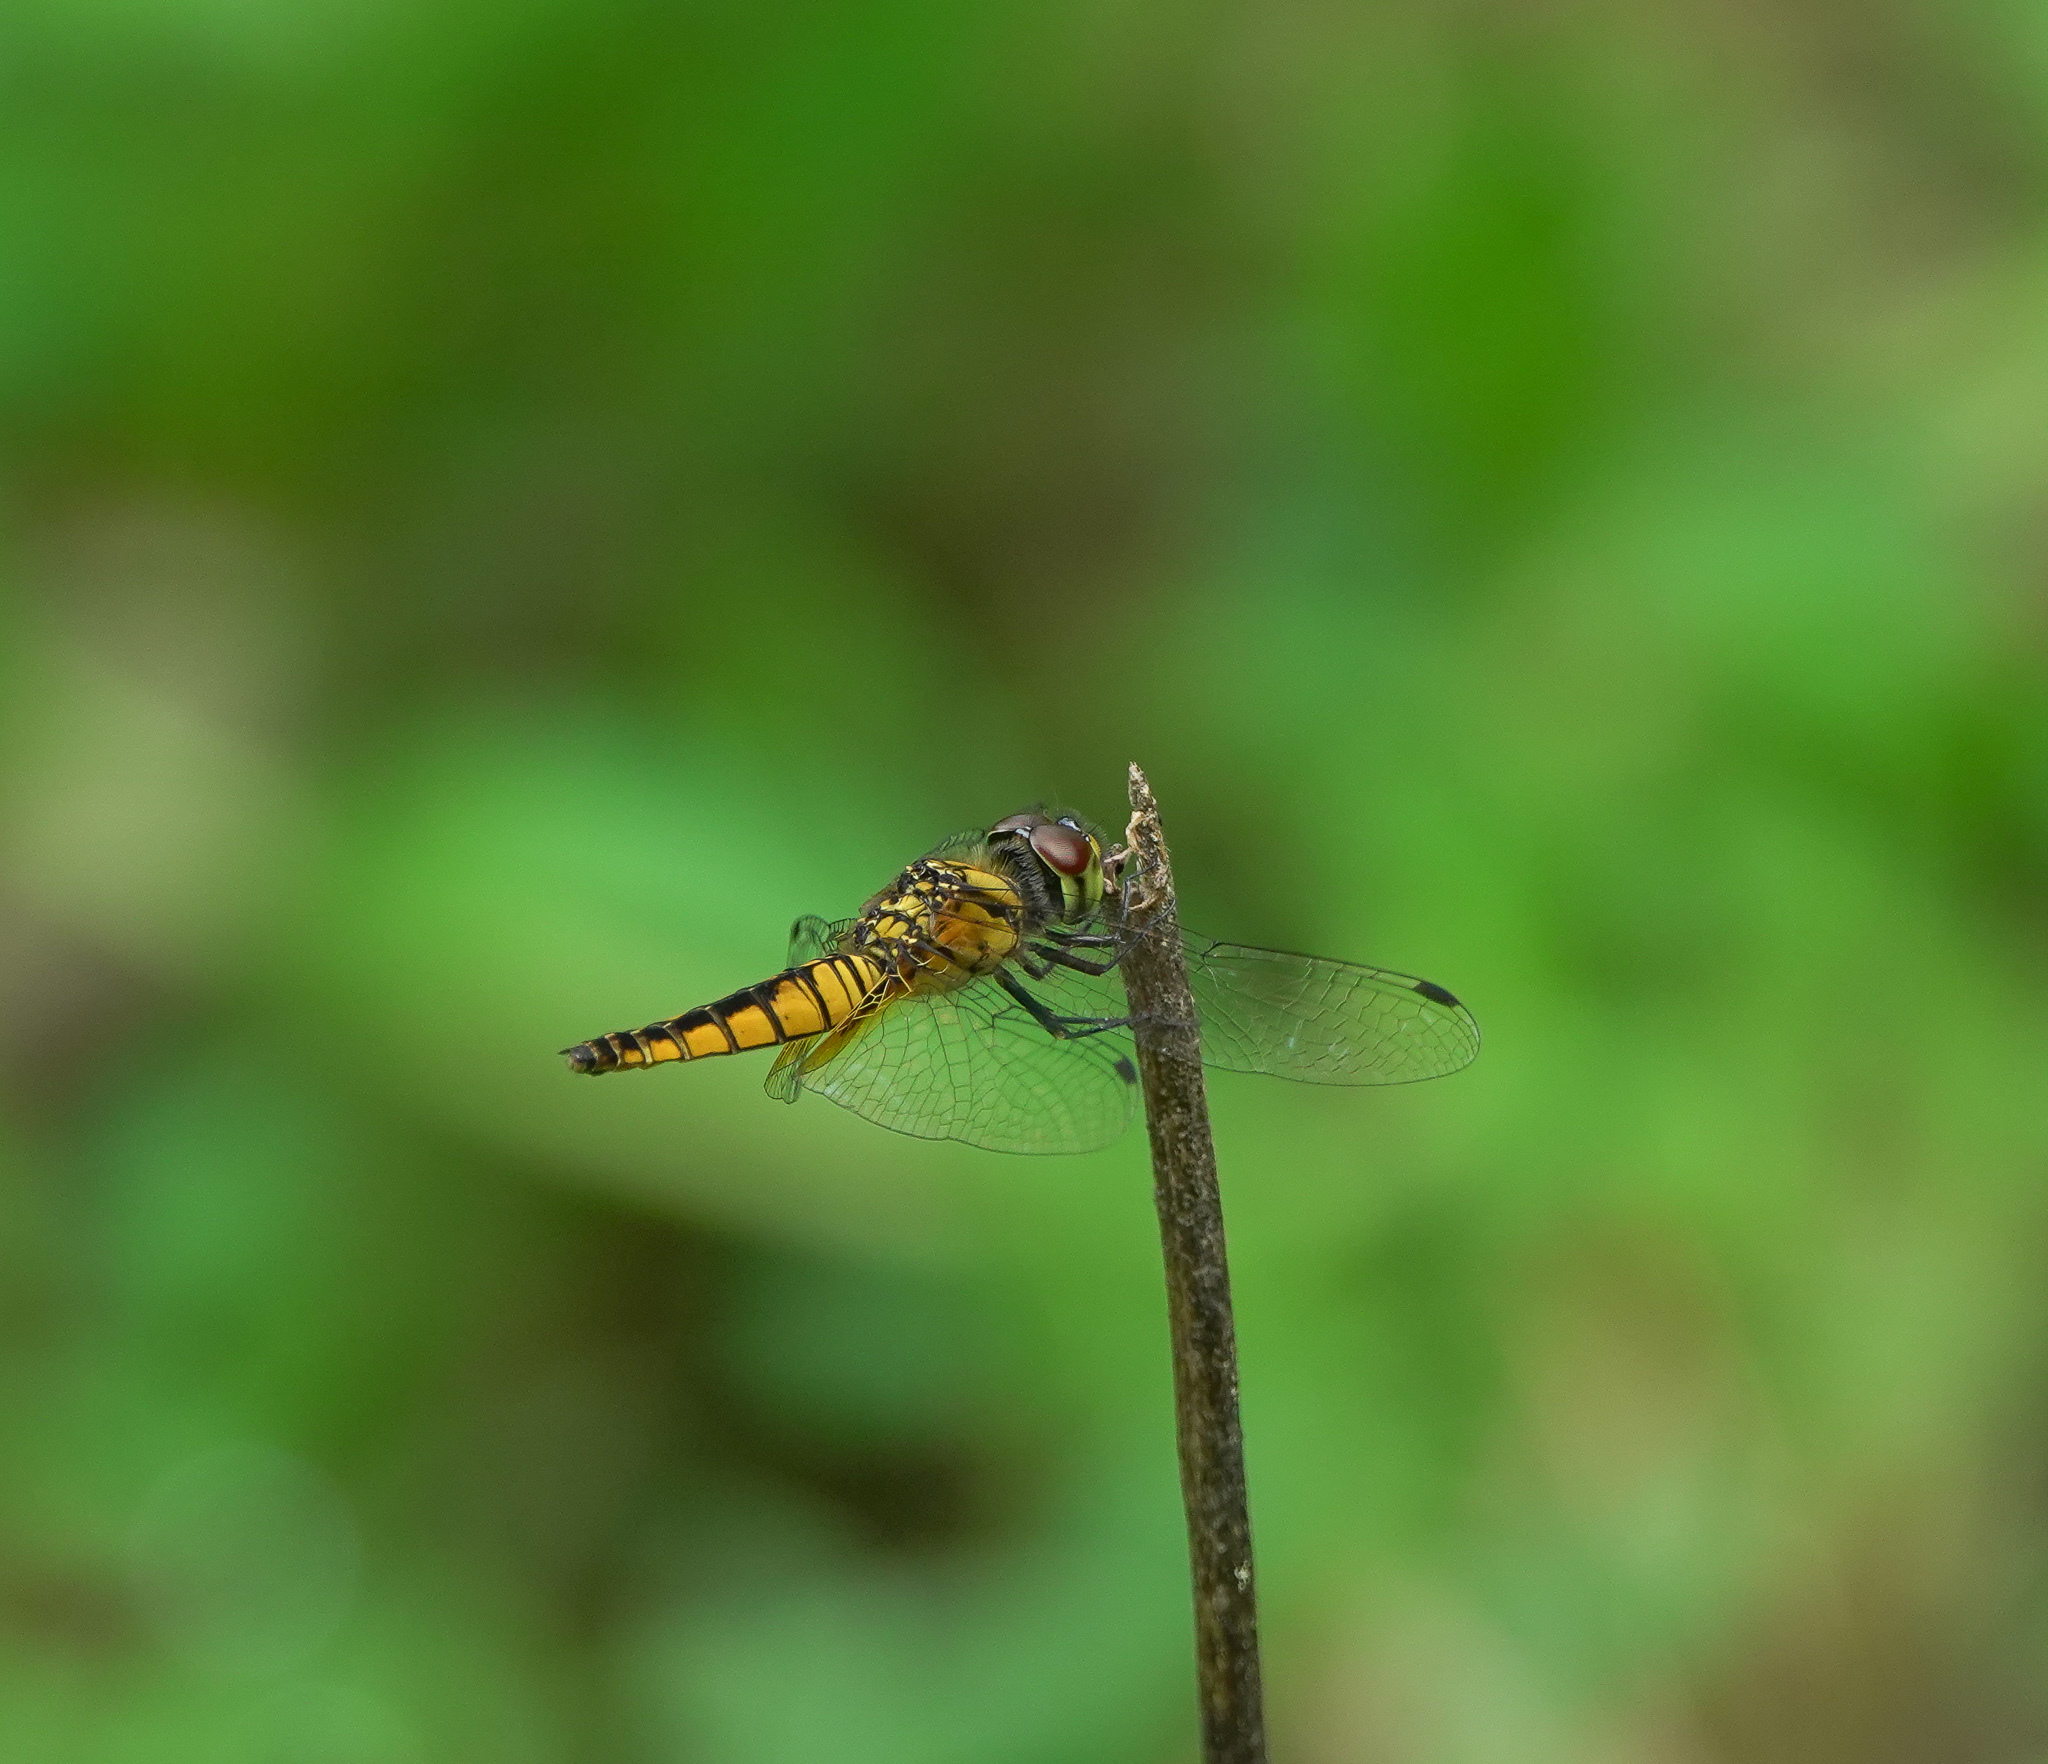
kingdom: Animalia
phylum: Arthropoda
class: Insecta
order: Odonata
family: Libellulidae
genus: Aethriamanta
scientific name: Aethriamanta brevipennis
